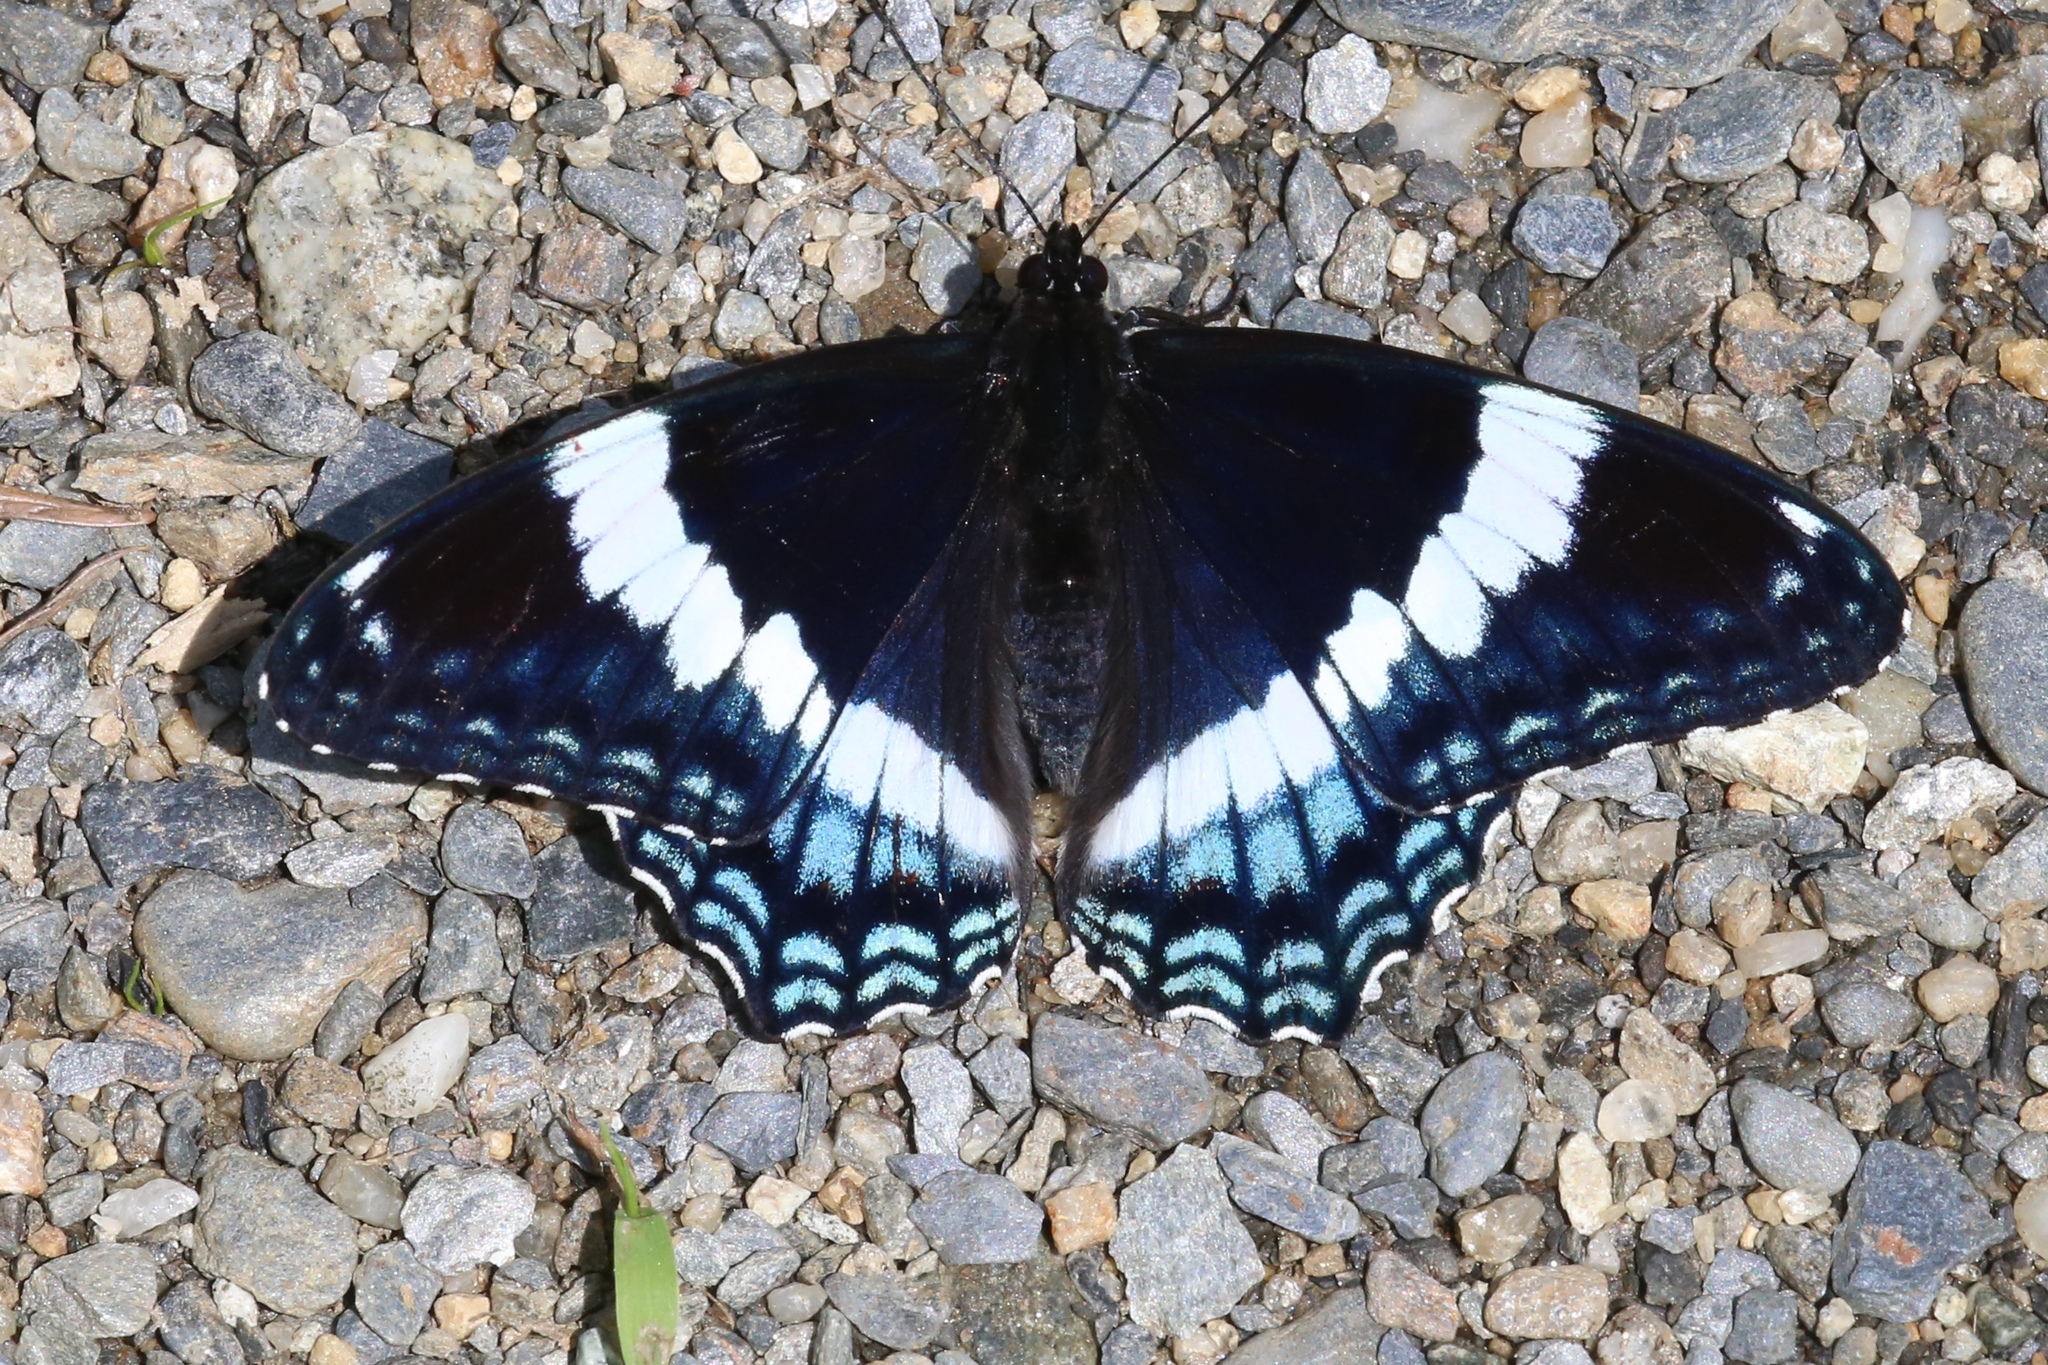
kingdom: Animalia
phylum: Arthropoda
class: Insecta
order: Lepidoptera
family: Nymphalidae
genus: Limenitis
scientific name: Limenitis arthemis
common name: Red-spotted admiral
